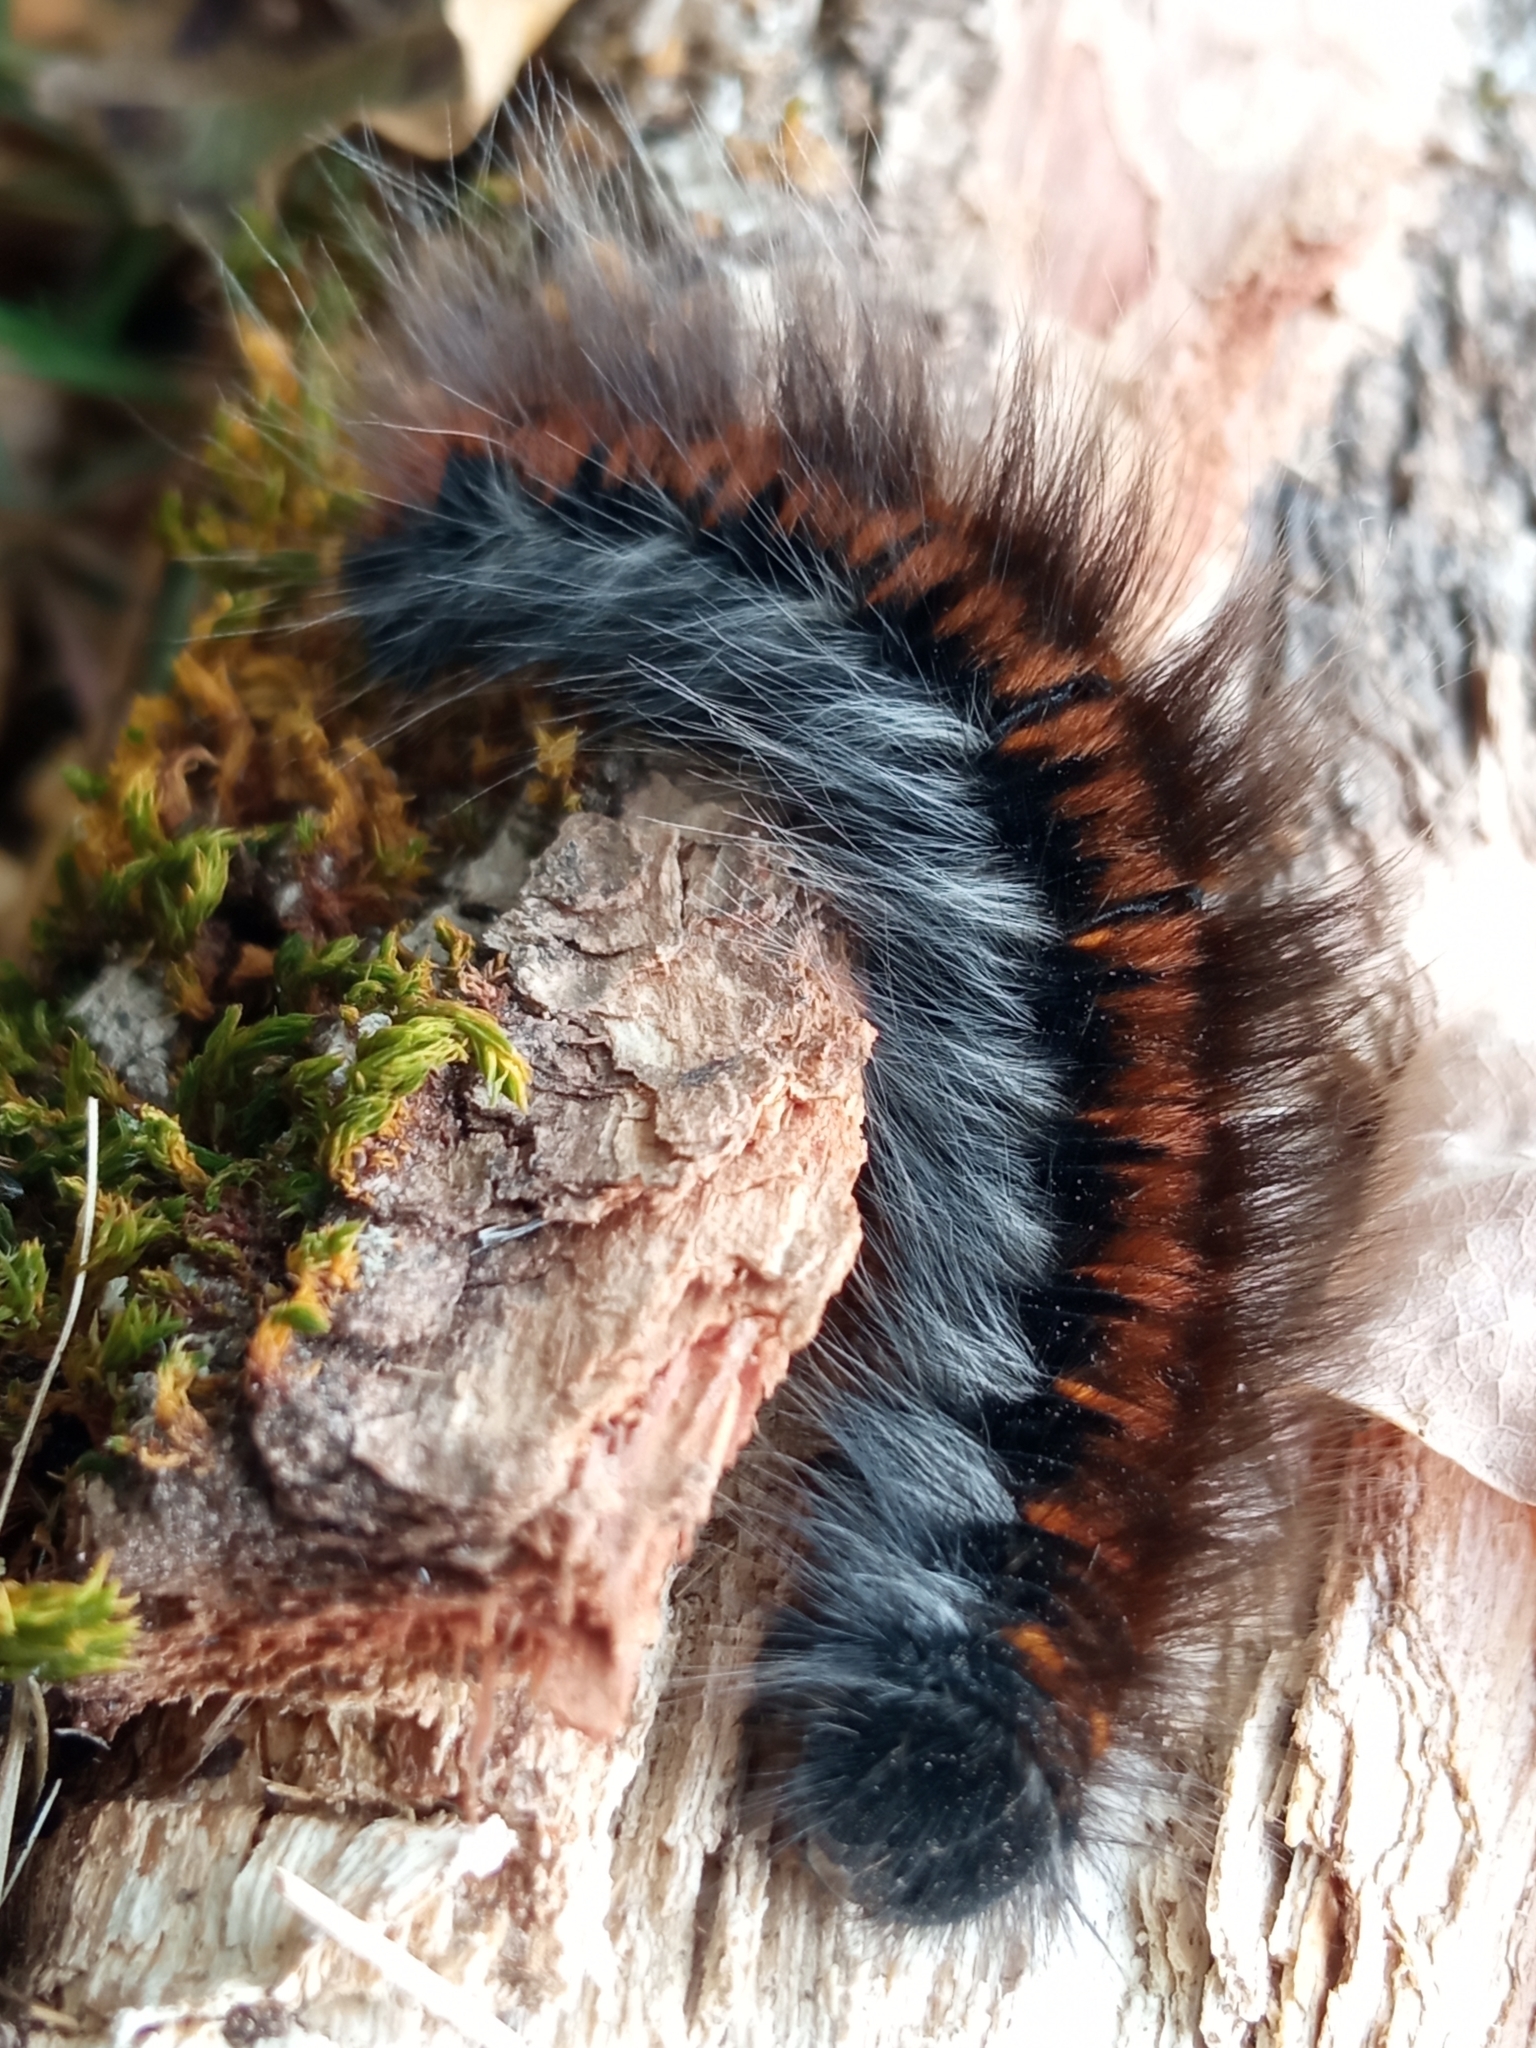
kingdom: Animalia
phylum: Arthropoda
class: Insecta
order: Lepidoptera
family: Lasiocampidae
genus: Macrothylacia
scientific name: Macrothylacia rubi
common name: Fox moth
